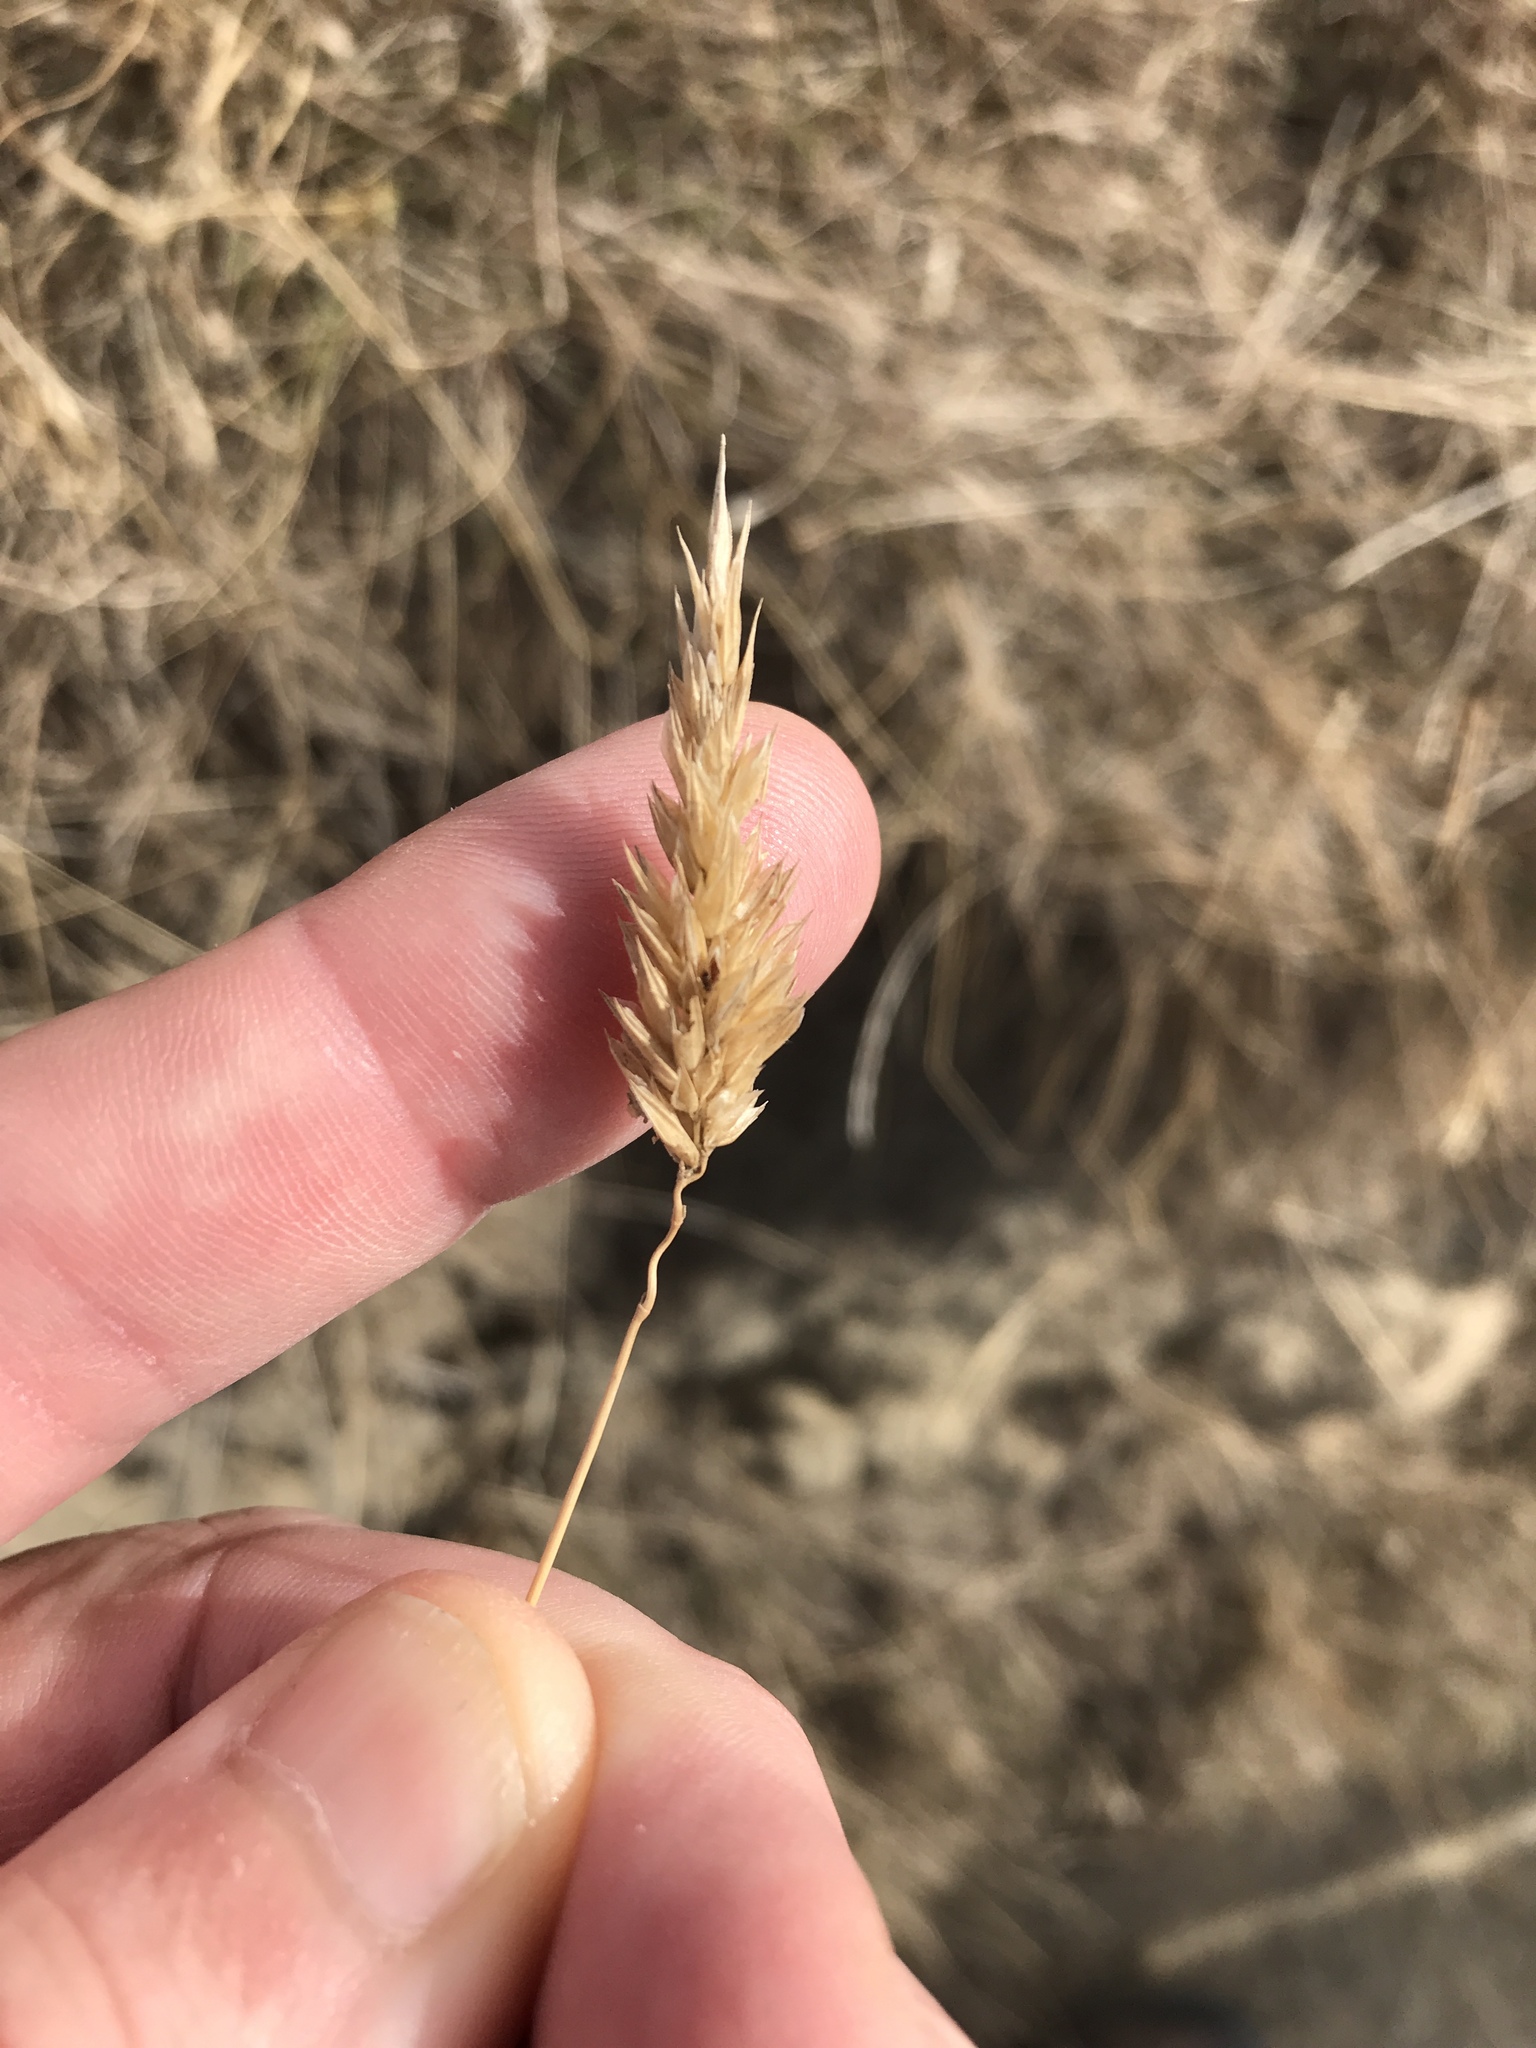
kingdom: Plantae
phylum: Tracheophyta
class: Liliopsida
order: Poales
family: Poaceae
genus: Anthoxanthum
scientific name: Anthoxanthum odoratum
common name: Sweet vernalgrass
